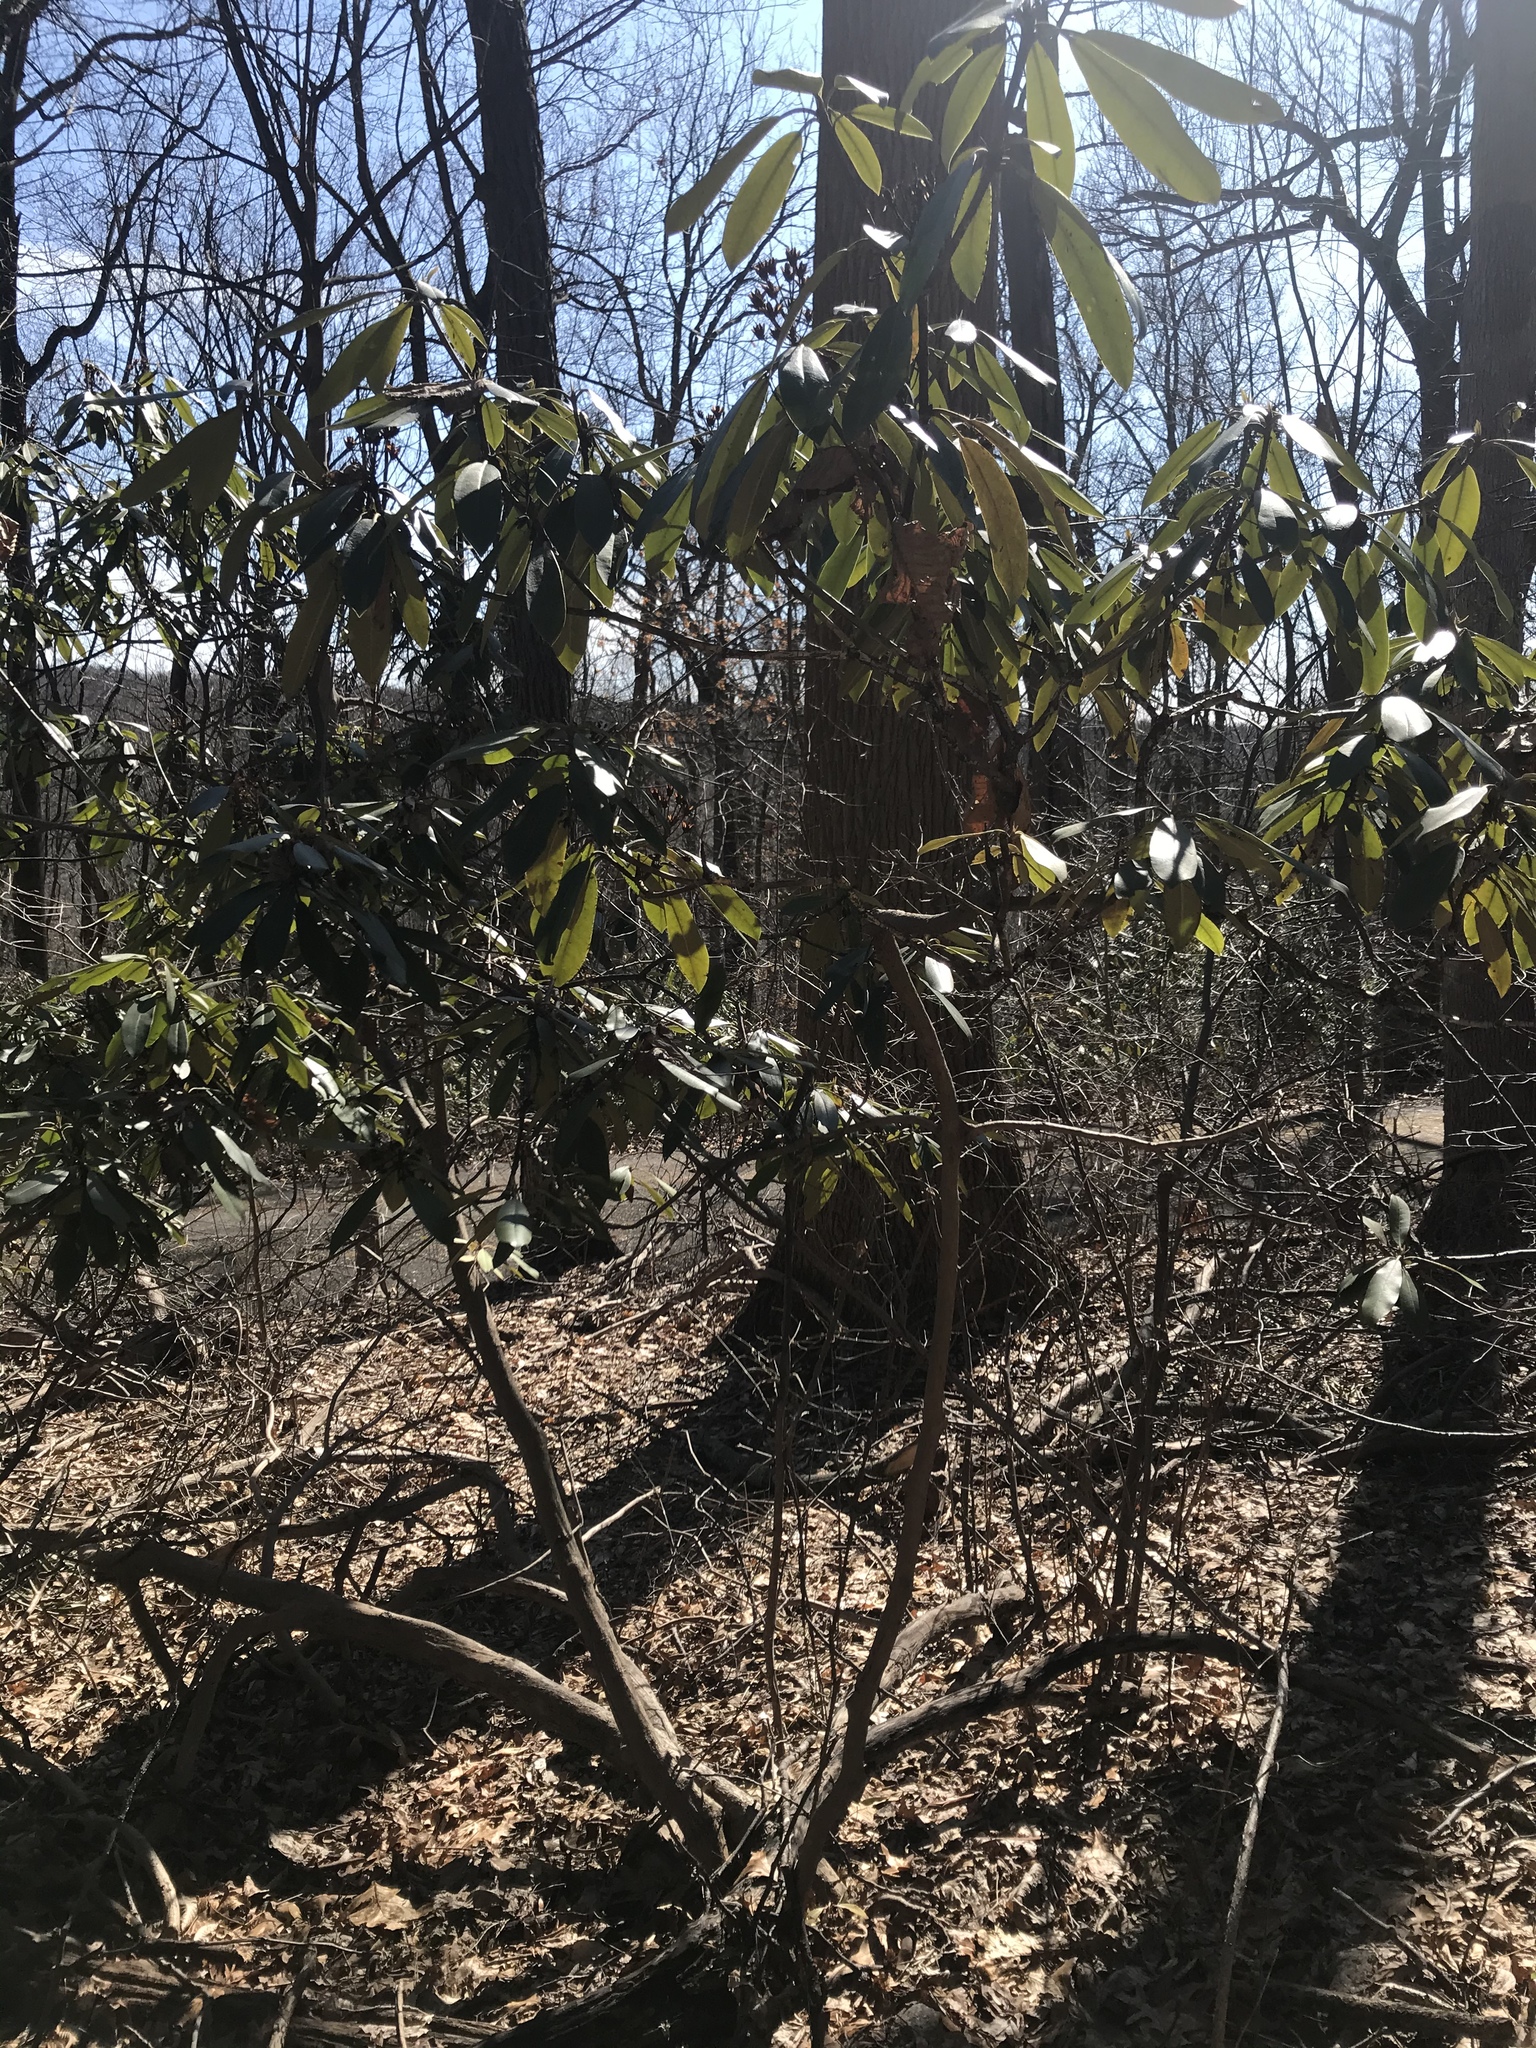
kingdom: Plantae
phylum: Tracheophyta
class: Magnoliopsida
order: Ericales
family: Ericaceae
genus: Rhododendron
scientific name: Rhododendron maximum
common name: Great rhododendron
